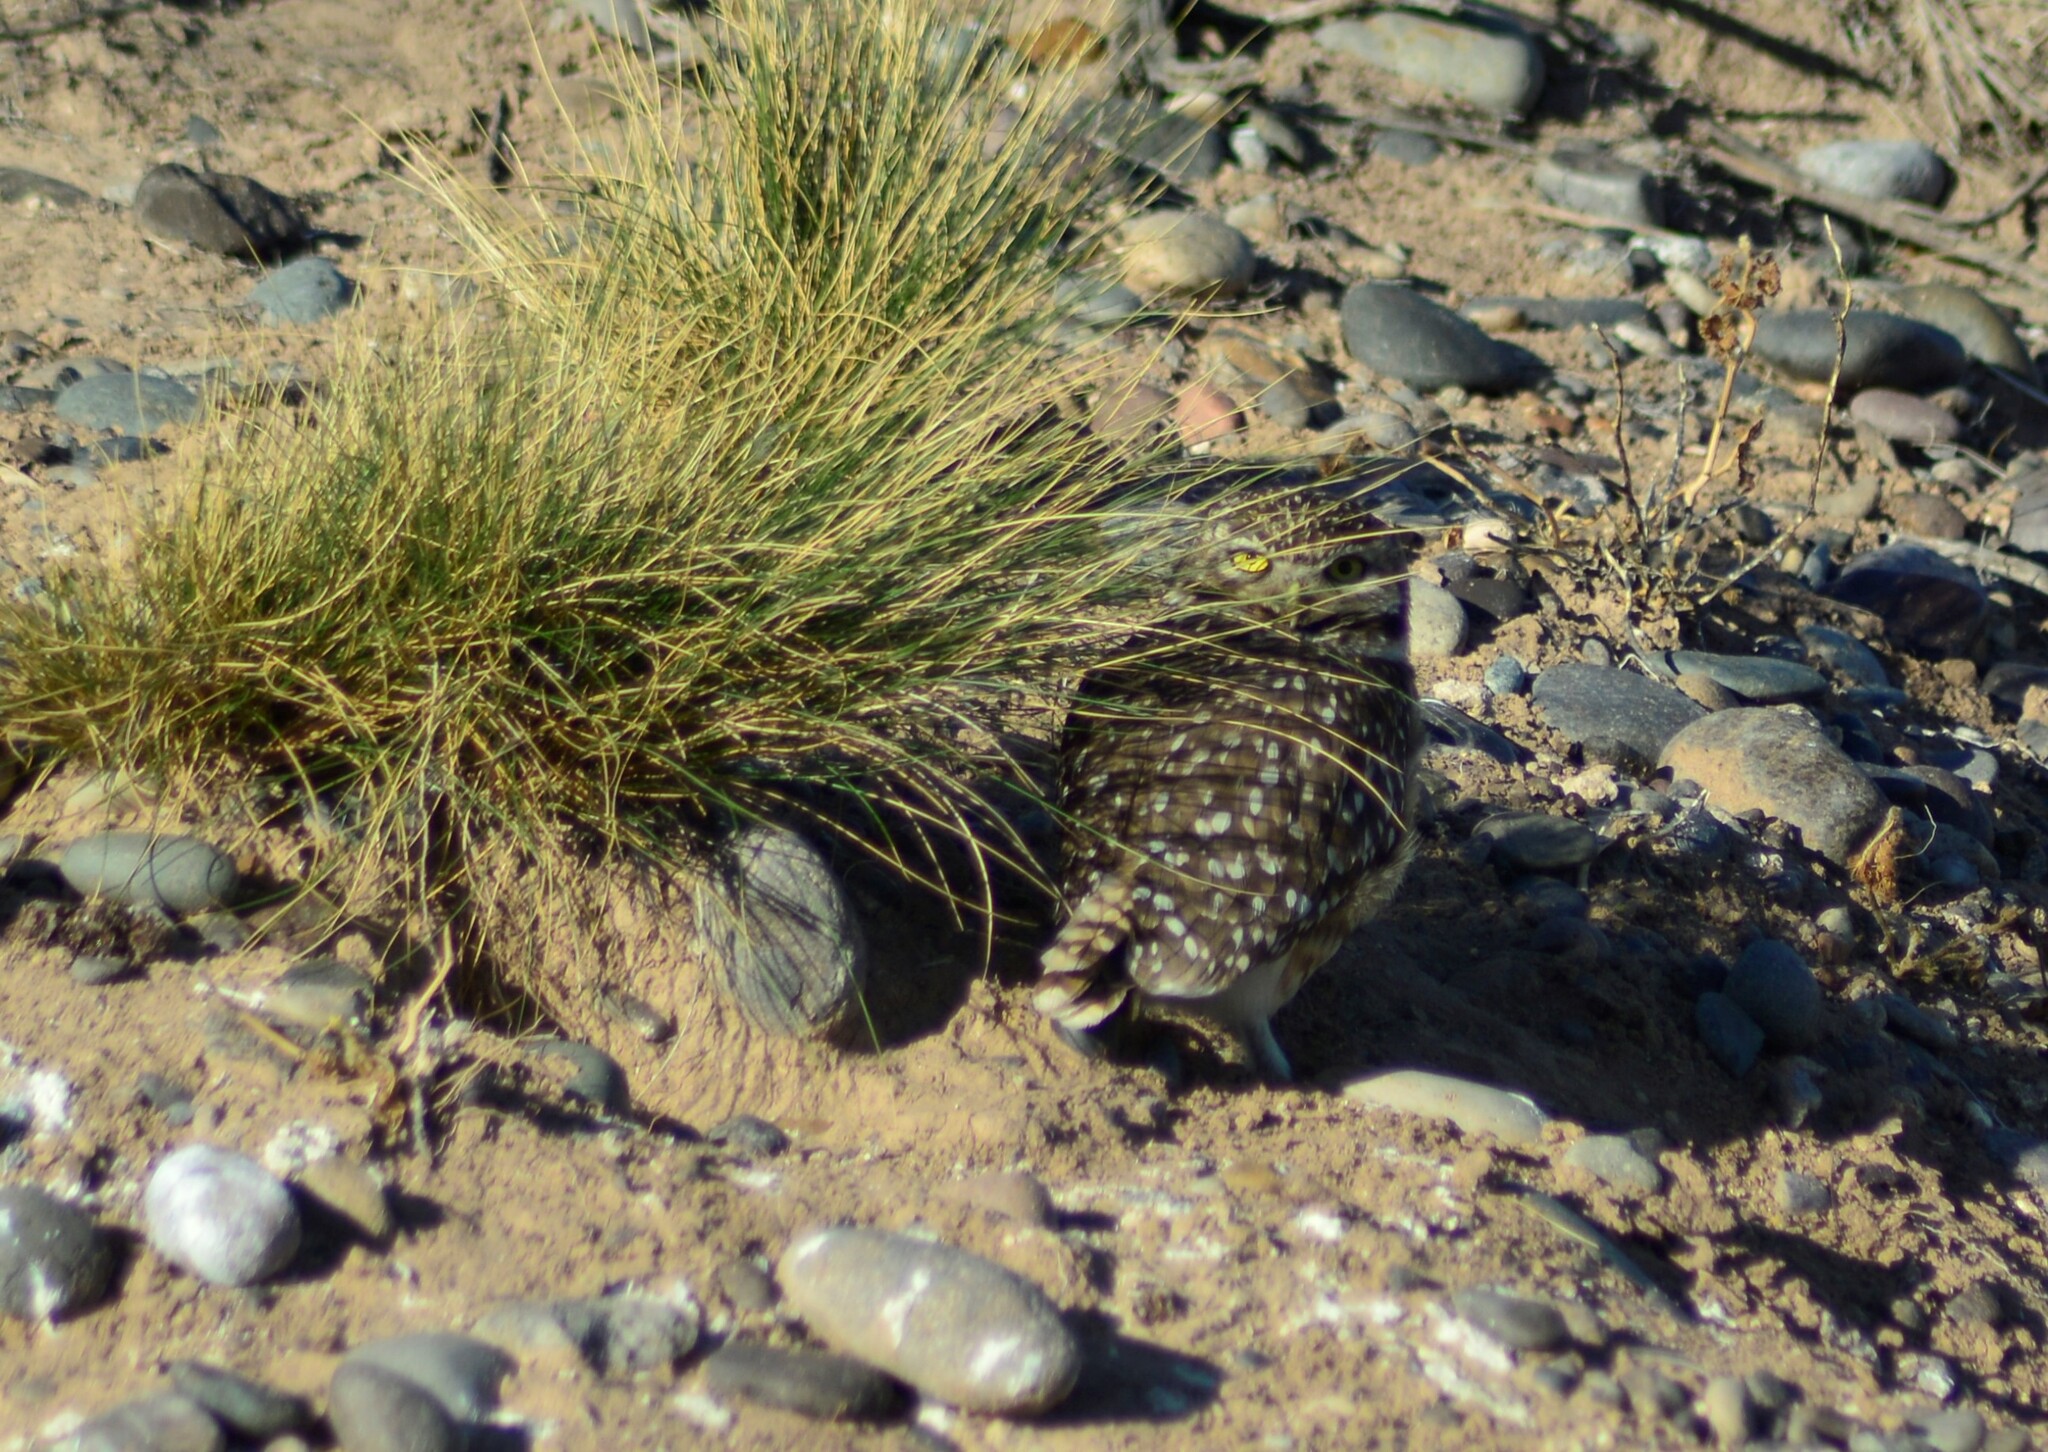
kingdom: Animalia
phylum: Chordata
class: Aves
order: Strigiformes
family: Strigidae
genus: Athene
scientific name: Athene cunicularia
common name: Burrowing owl
